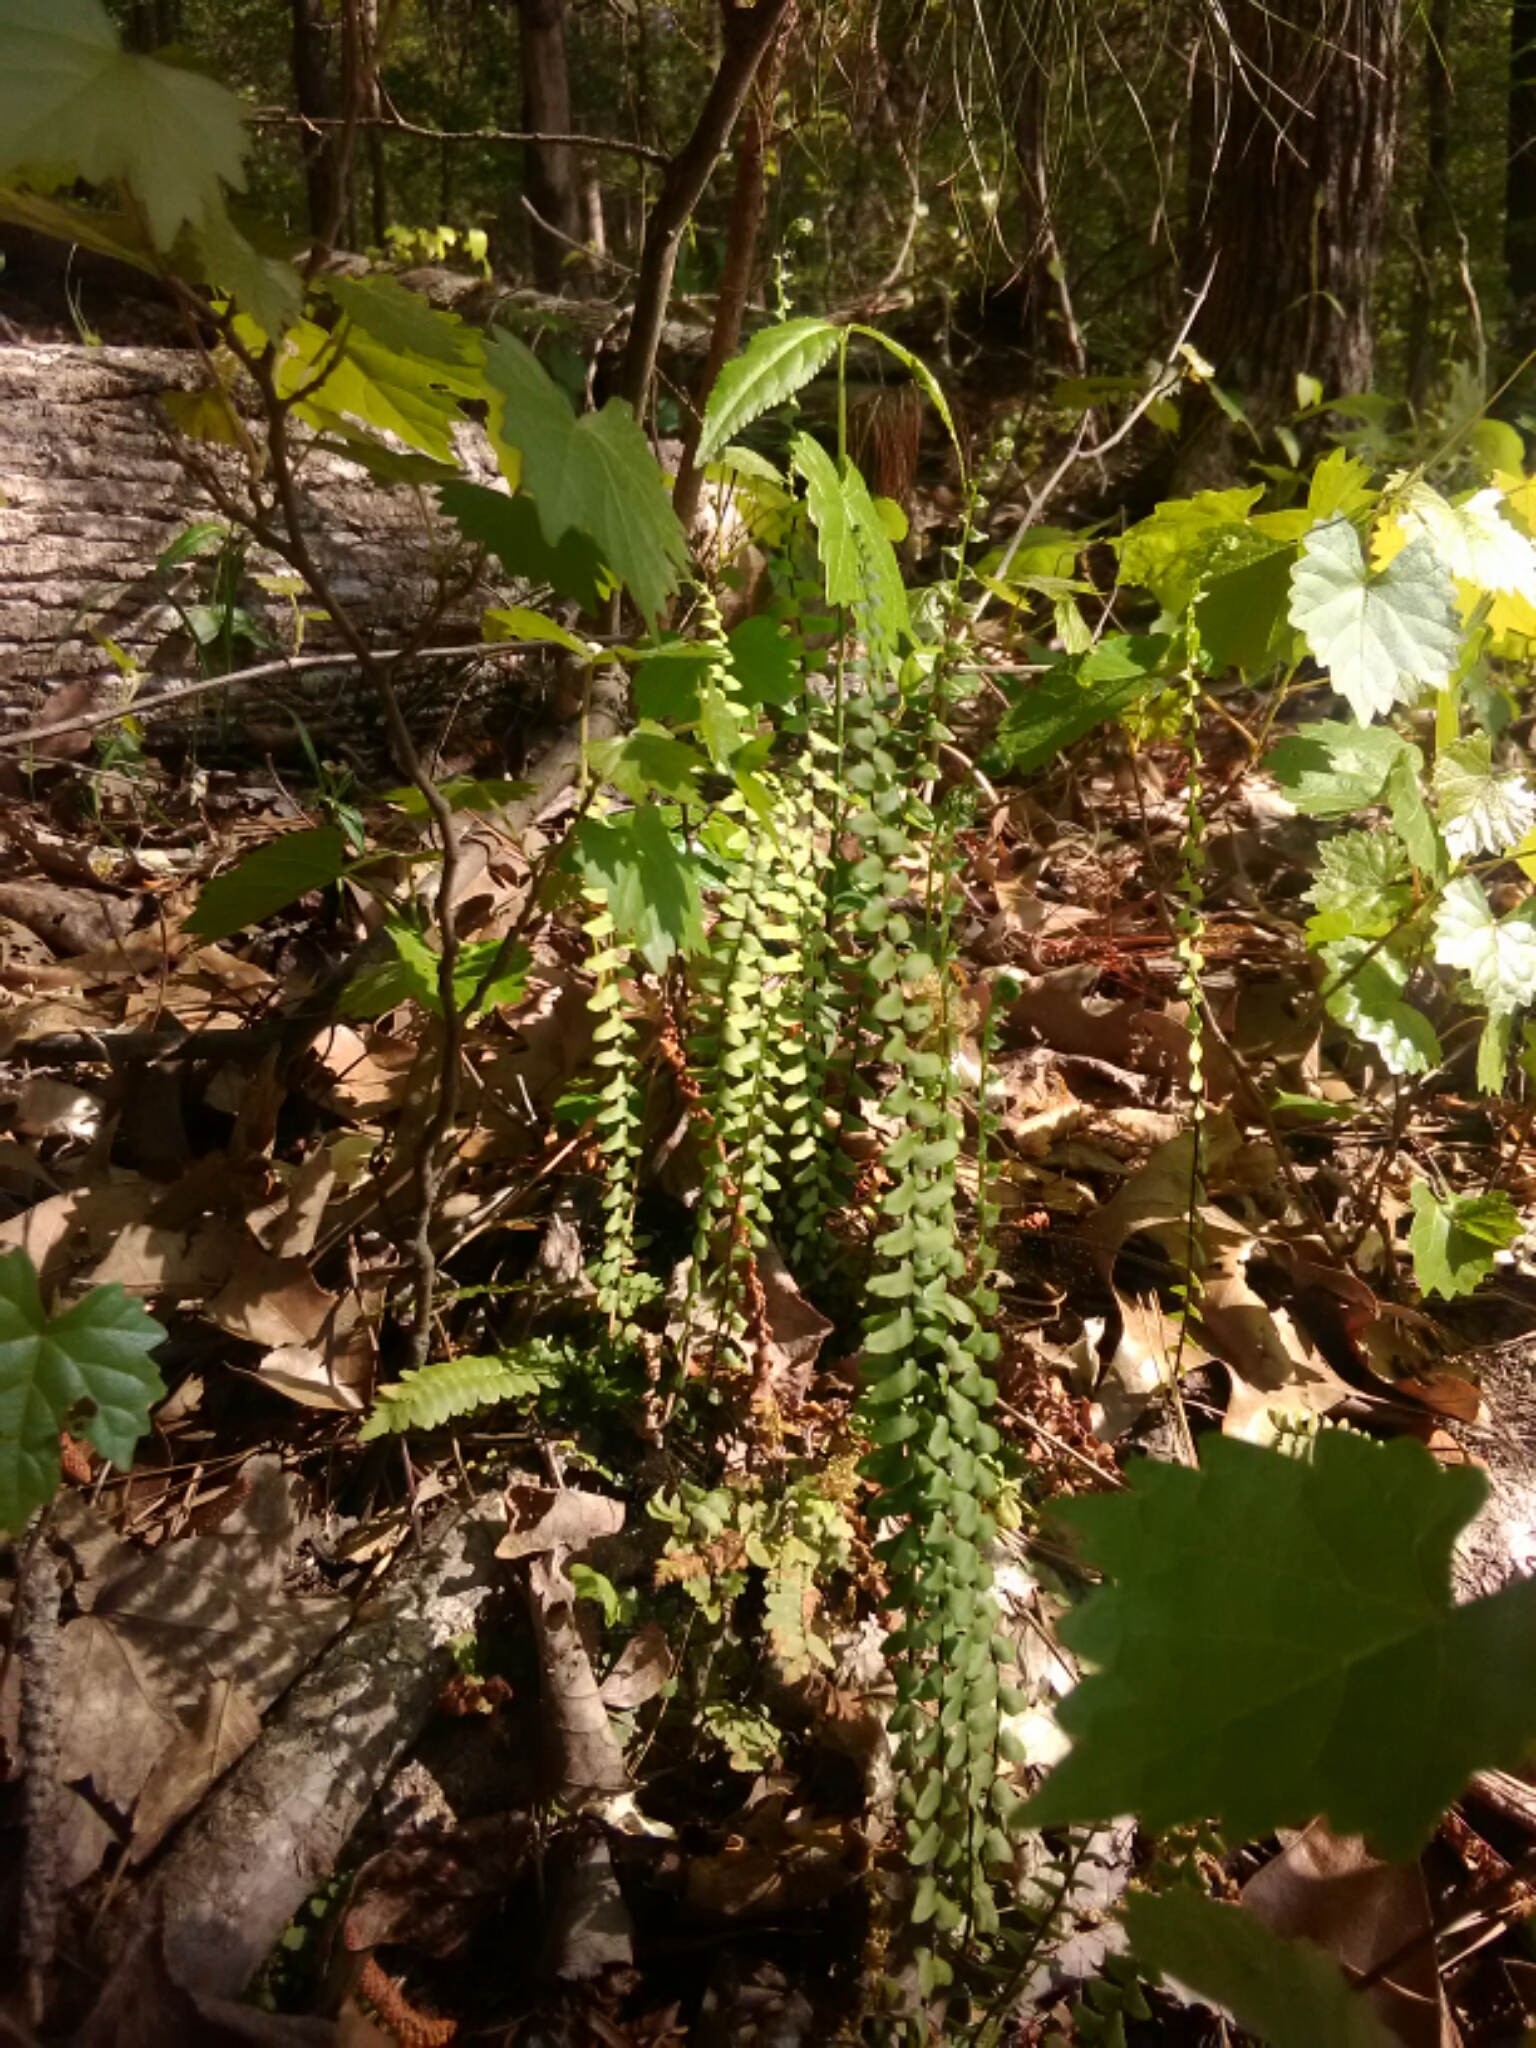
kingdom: Plantae
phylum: Tracheophyta
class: Polypodiopsida
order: Polypodiales
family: Aspleniaceae
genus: Asplenium
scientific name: Asplenium platyneuron
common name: Ebony spleenwort
